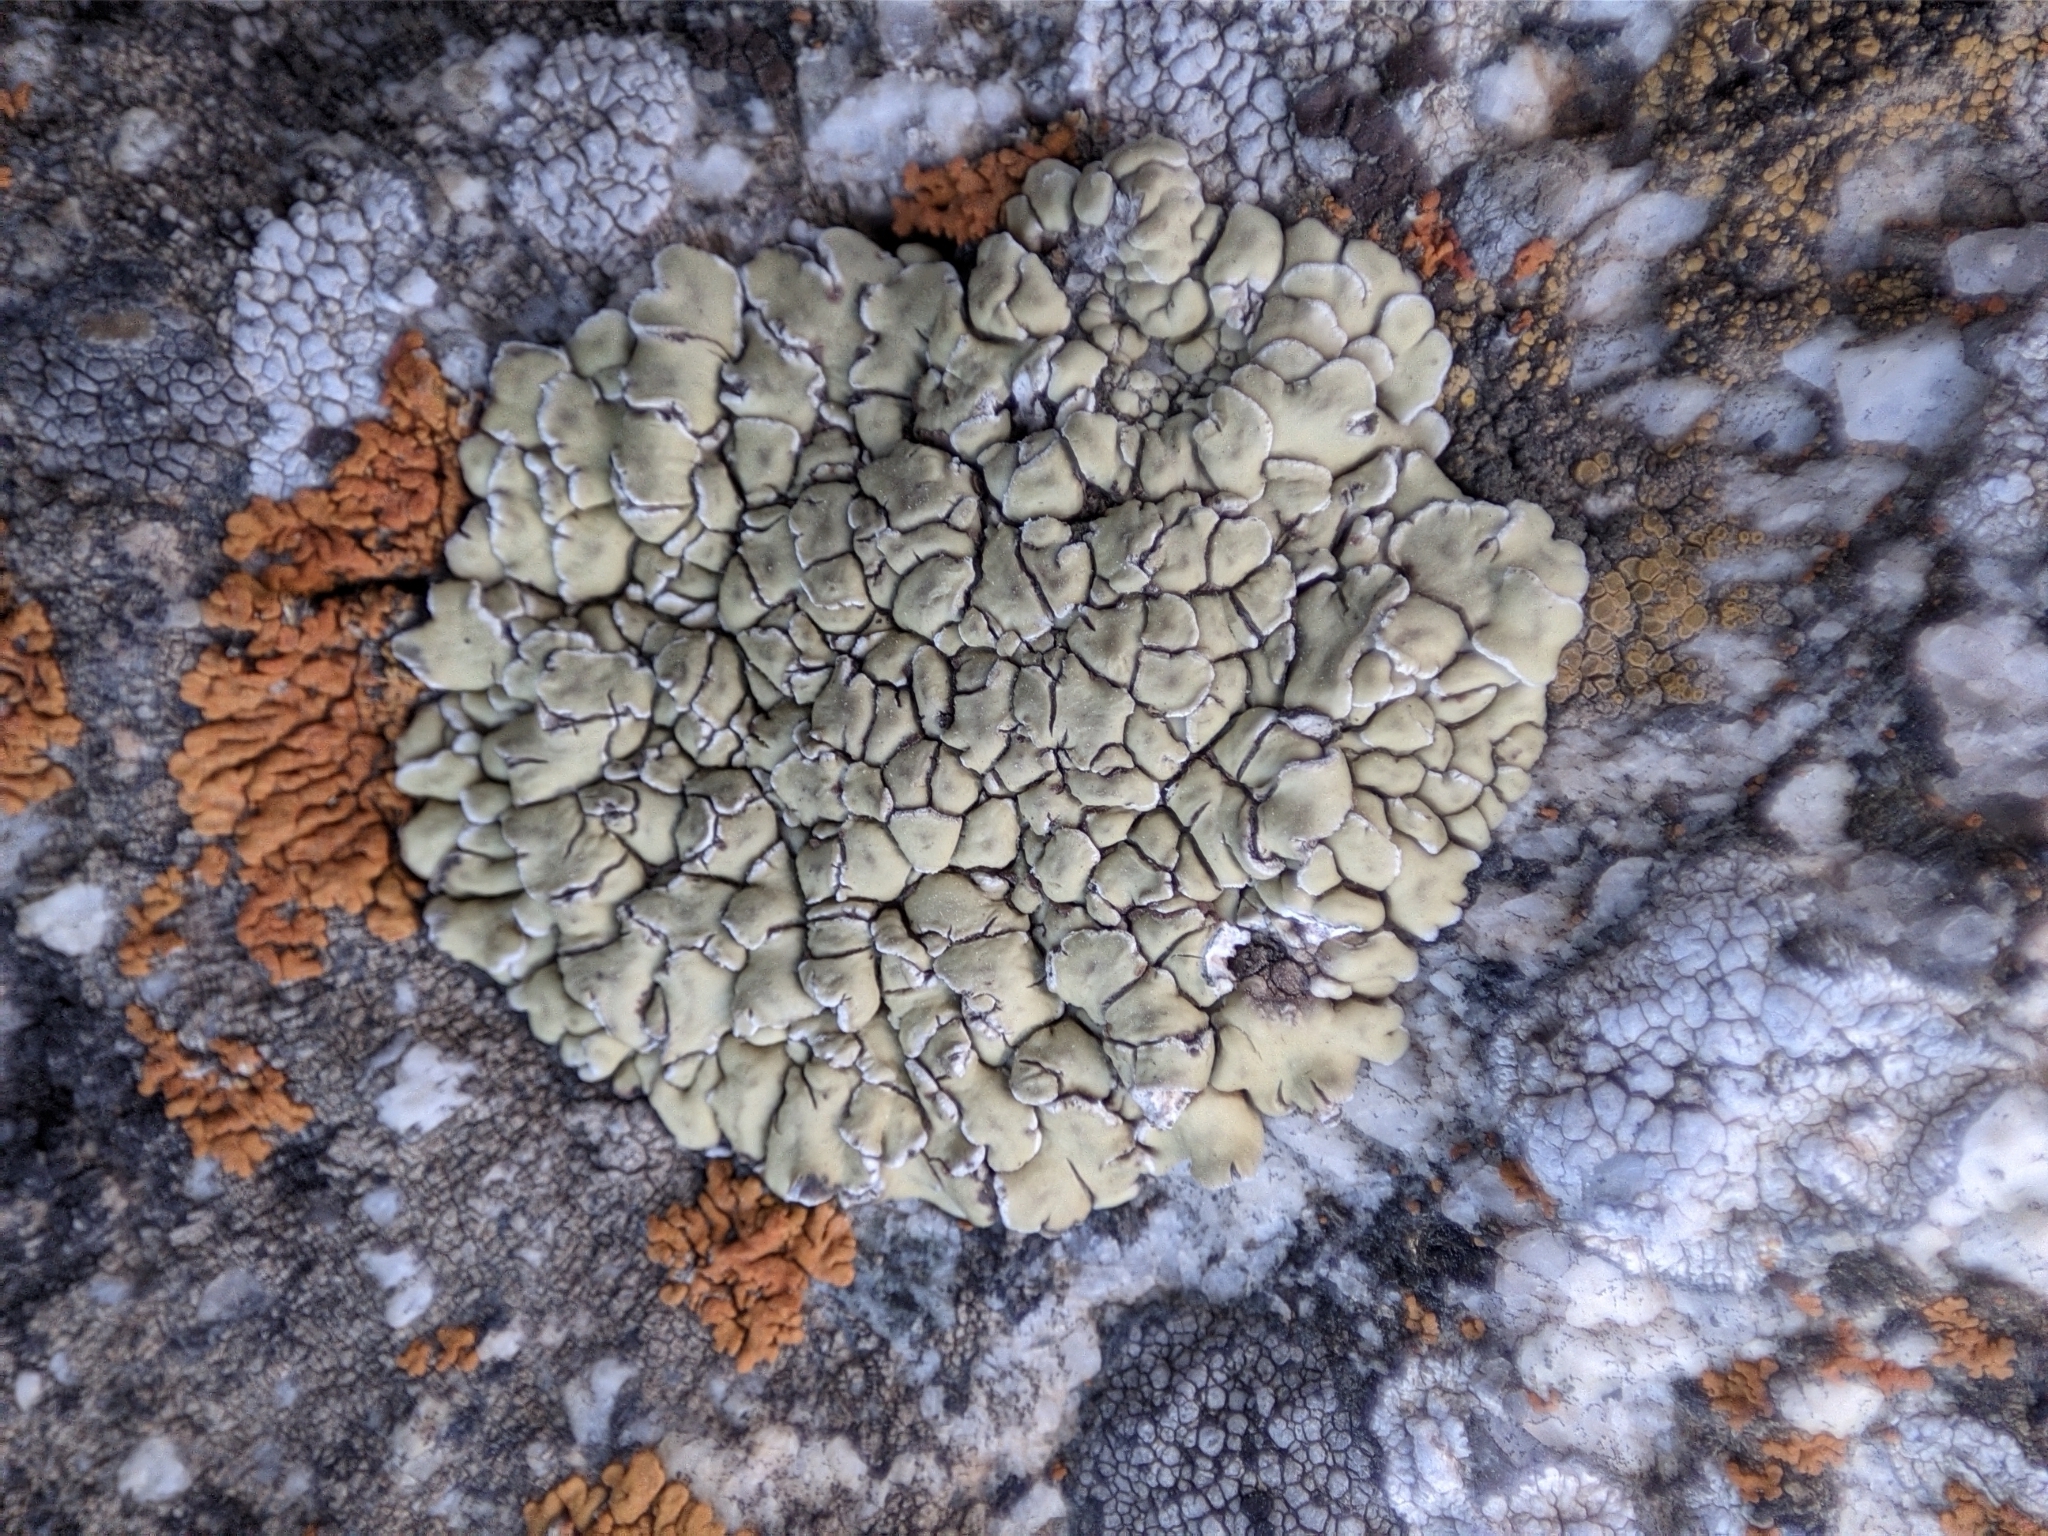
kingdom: Fungi
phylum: Ascomycota
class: Lecanoromycetes
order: Lecanorales
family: Lecanoraceae
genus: Protoparmeliopsis
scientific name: Protoparmeliopsis muralis
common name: Stonewall rim lichen
